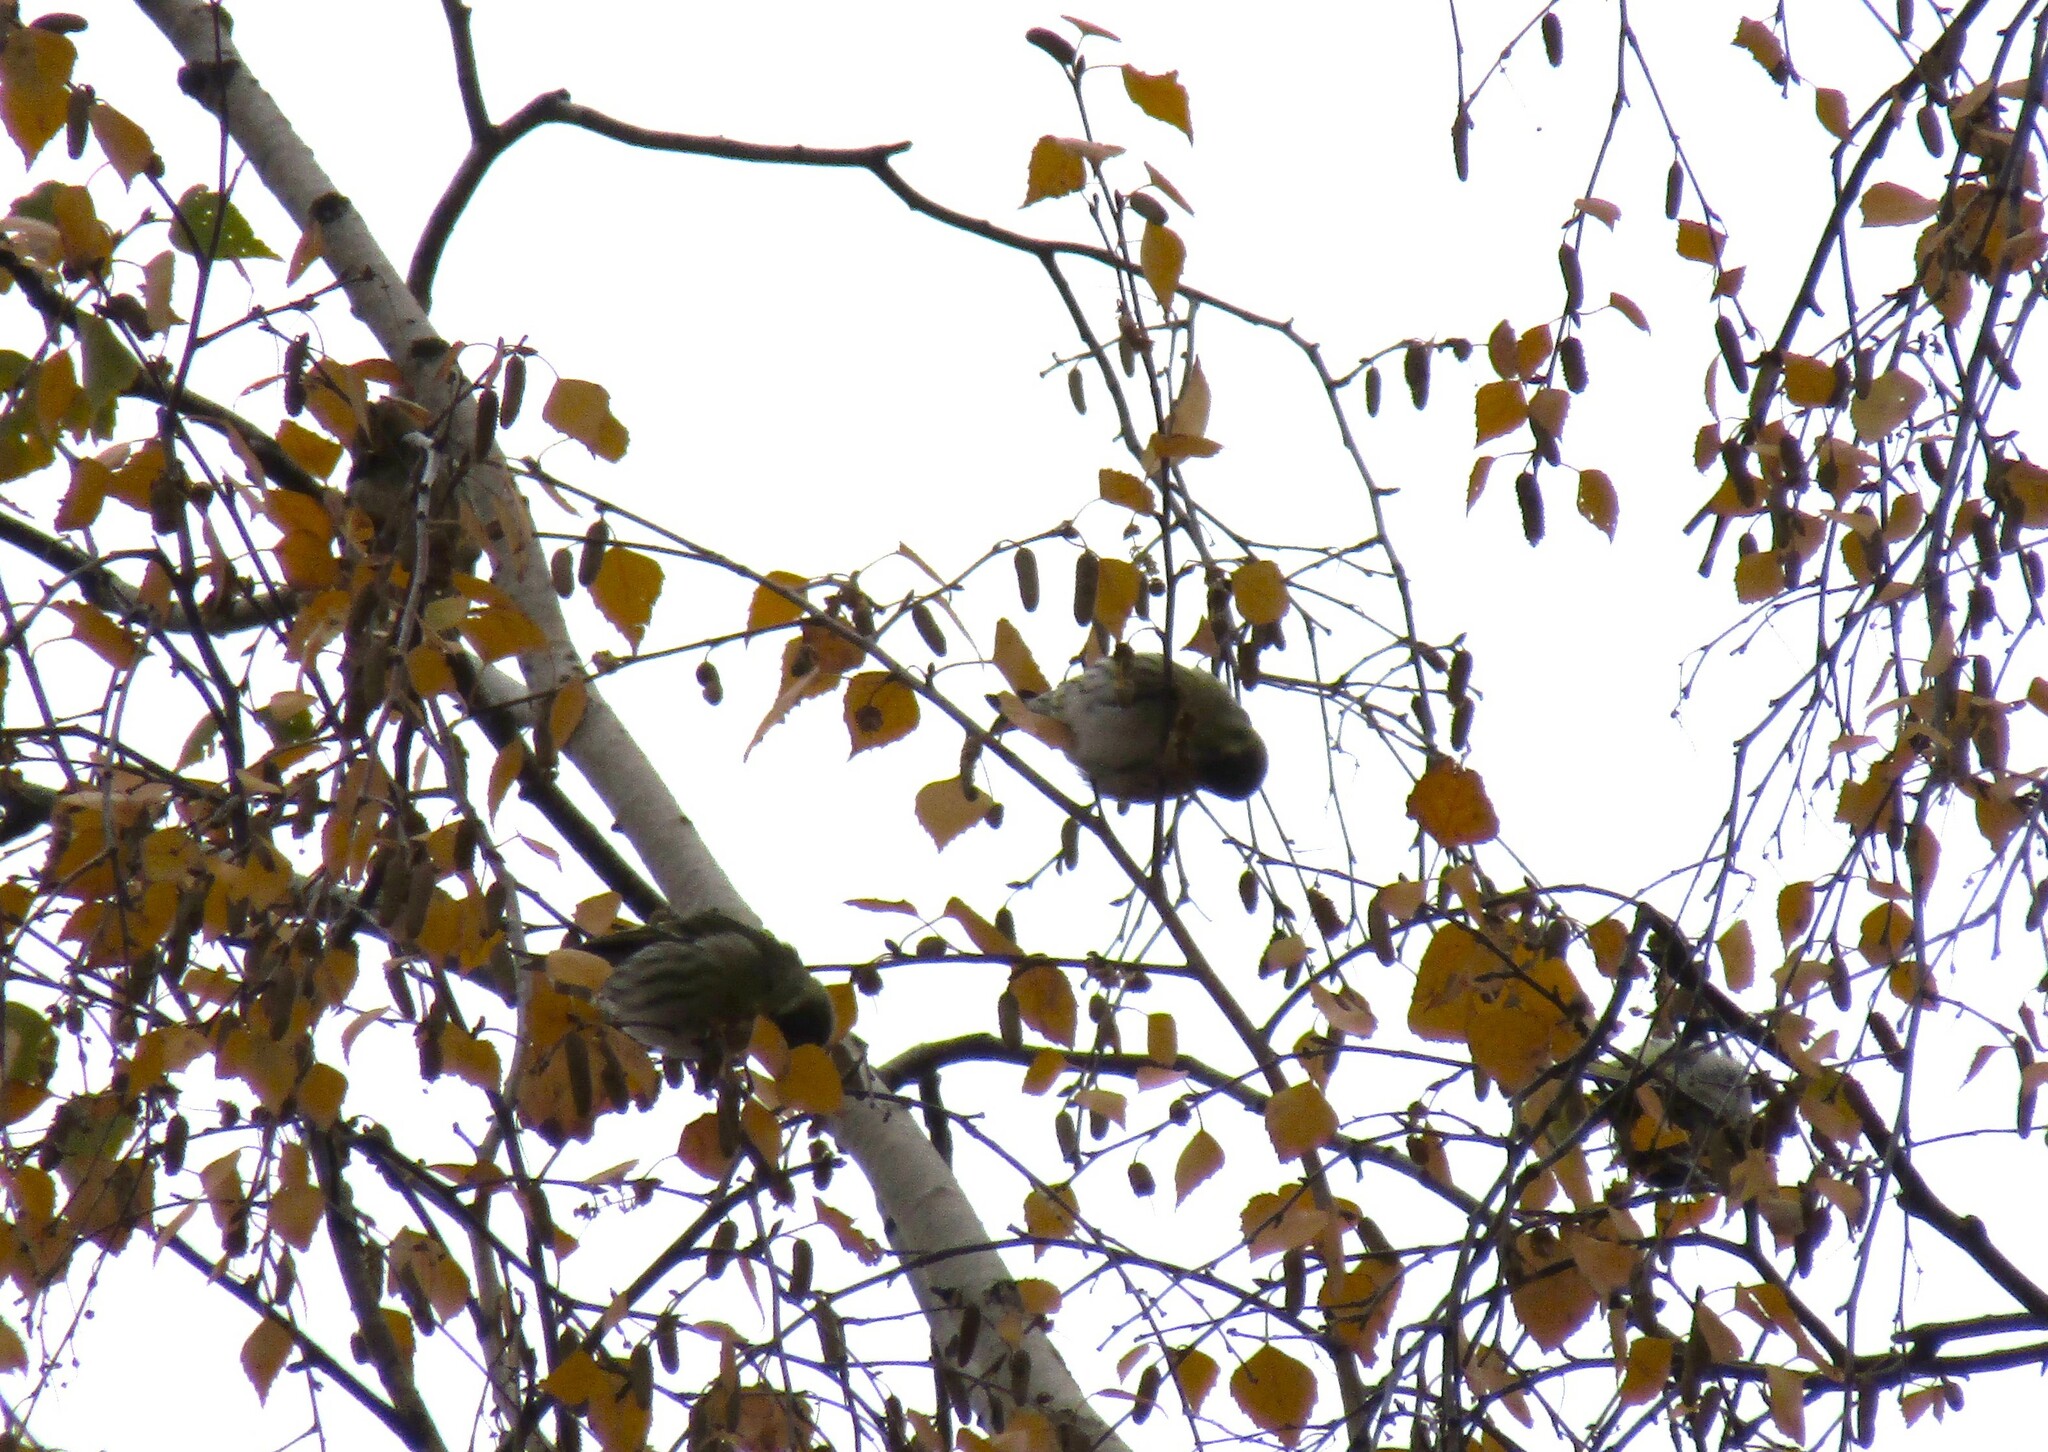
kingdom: Animalia
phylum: Chordata
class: Aves
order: Passeriformes
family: Fringillidae
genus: Spinus
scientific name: Spinus spinus
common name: Eurasian siskin
